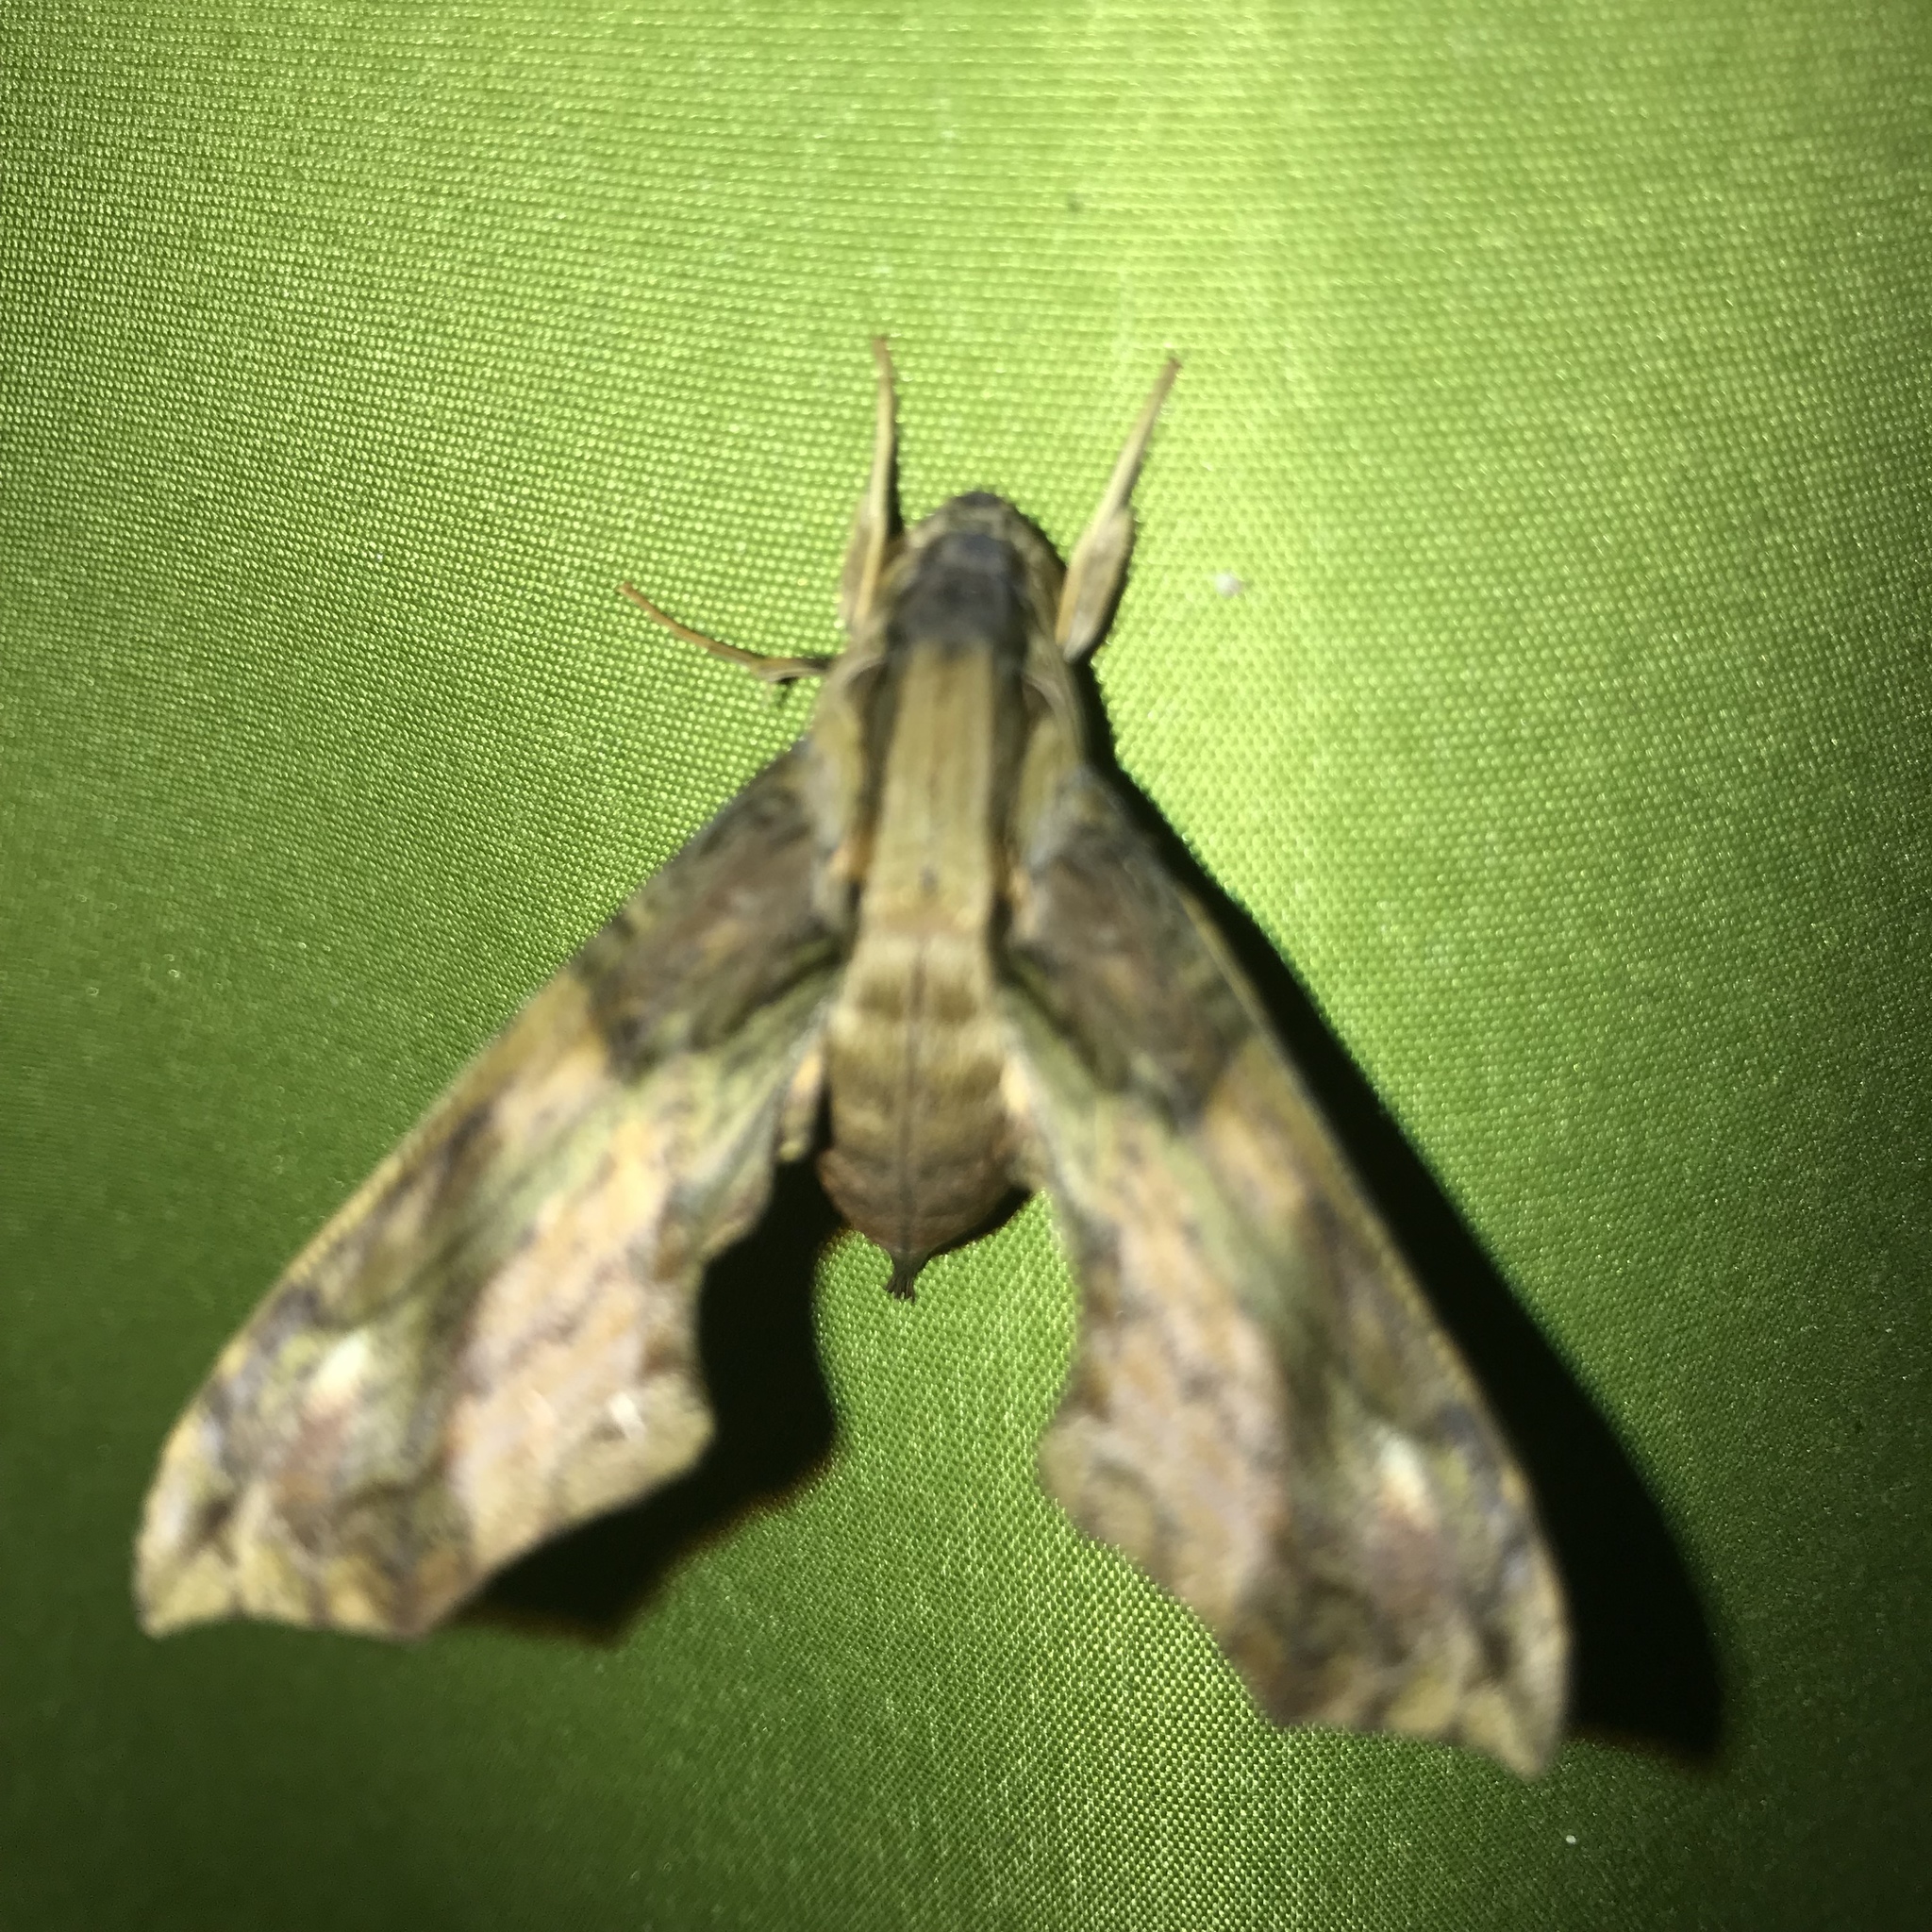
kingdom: Animalia
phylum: Arthropoda
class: Insecta
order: Lepidoptera
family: Sphingidae
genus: Eupanacra
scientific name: Eupanacra splendens
